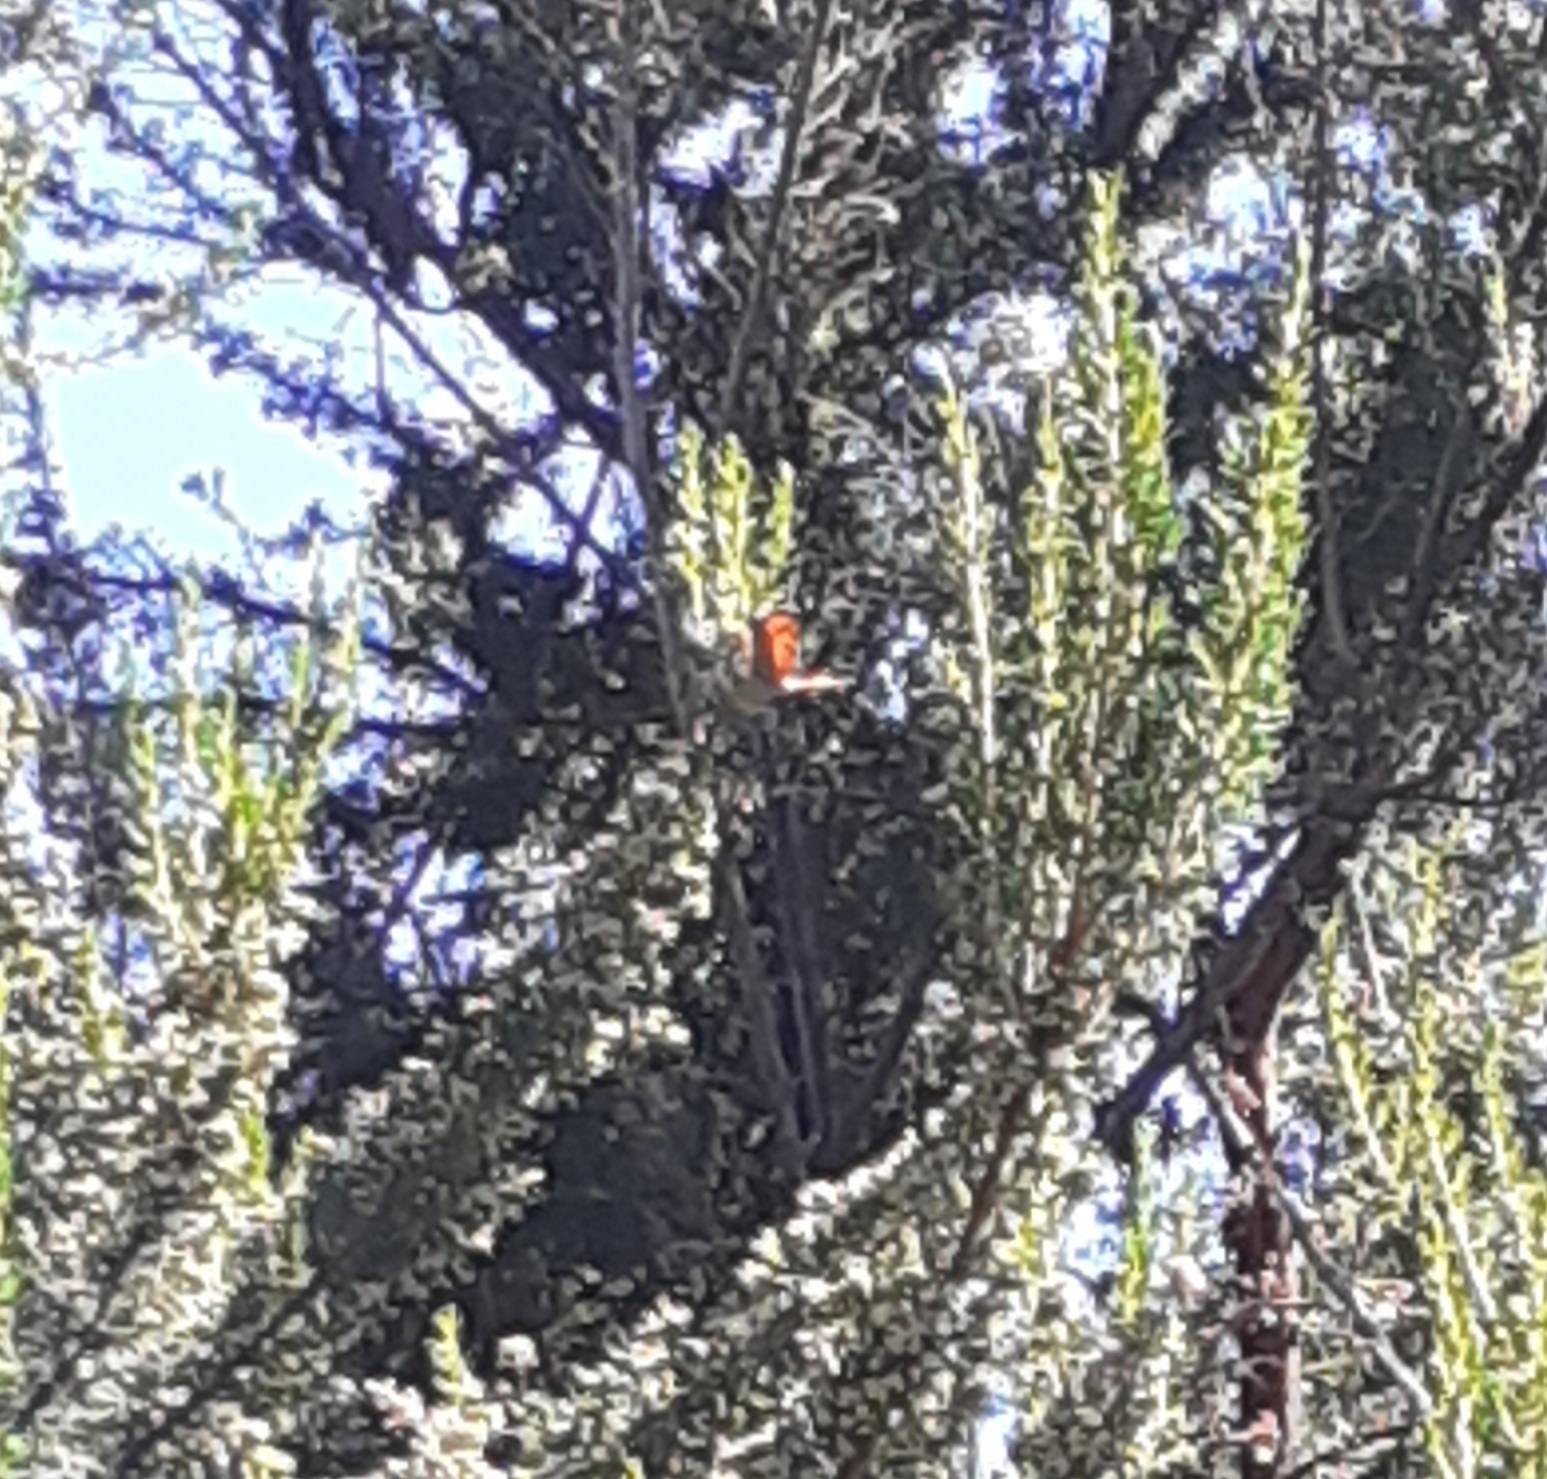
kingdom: Animalia
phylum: Arthropoda
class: Insecta
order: Lepidoptera
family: Lycaenidae
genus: Lycaena
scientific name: Lycaena phlaeas
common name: Small copper
